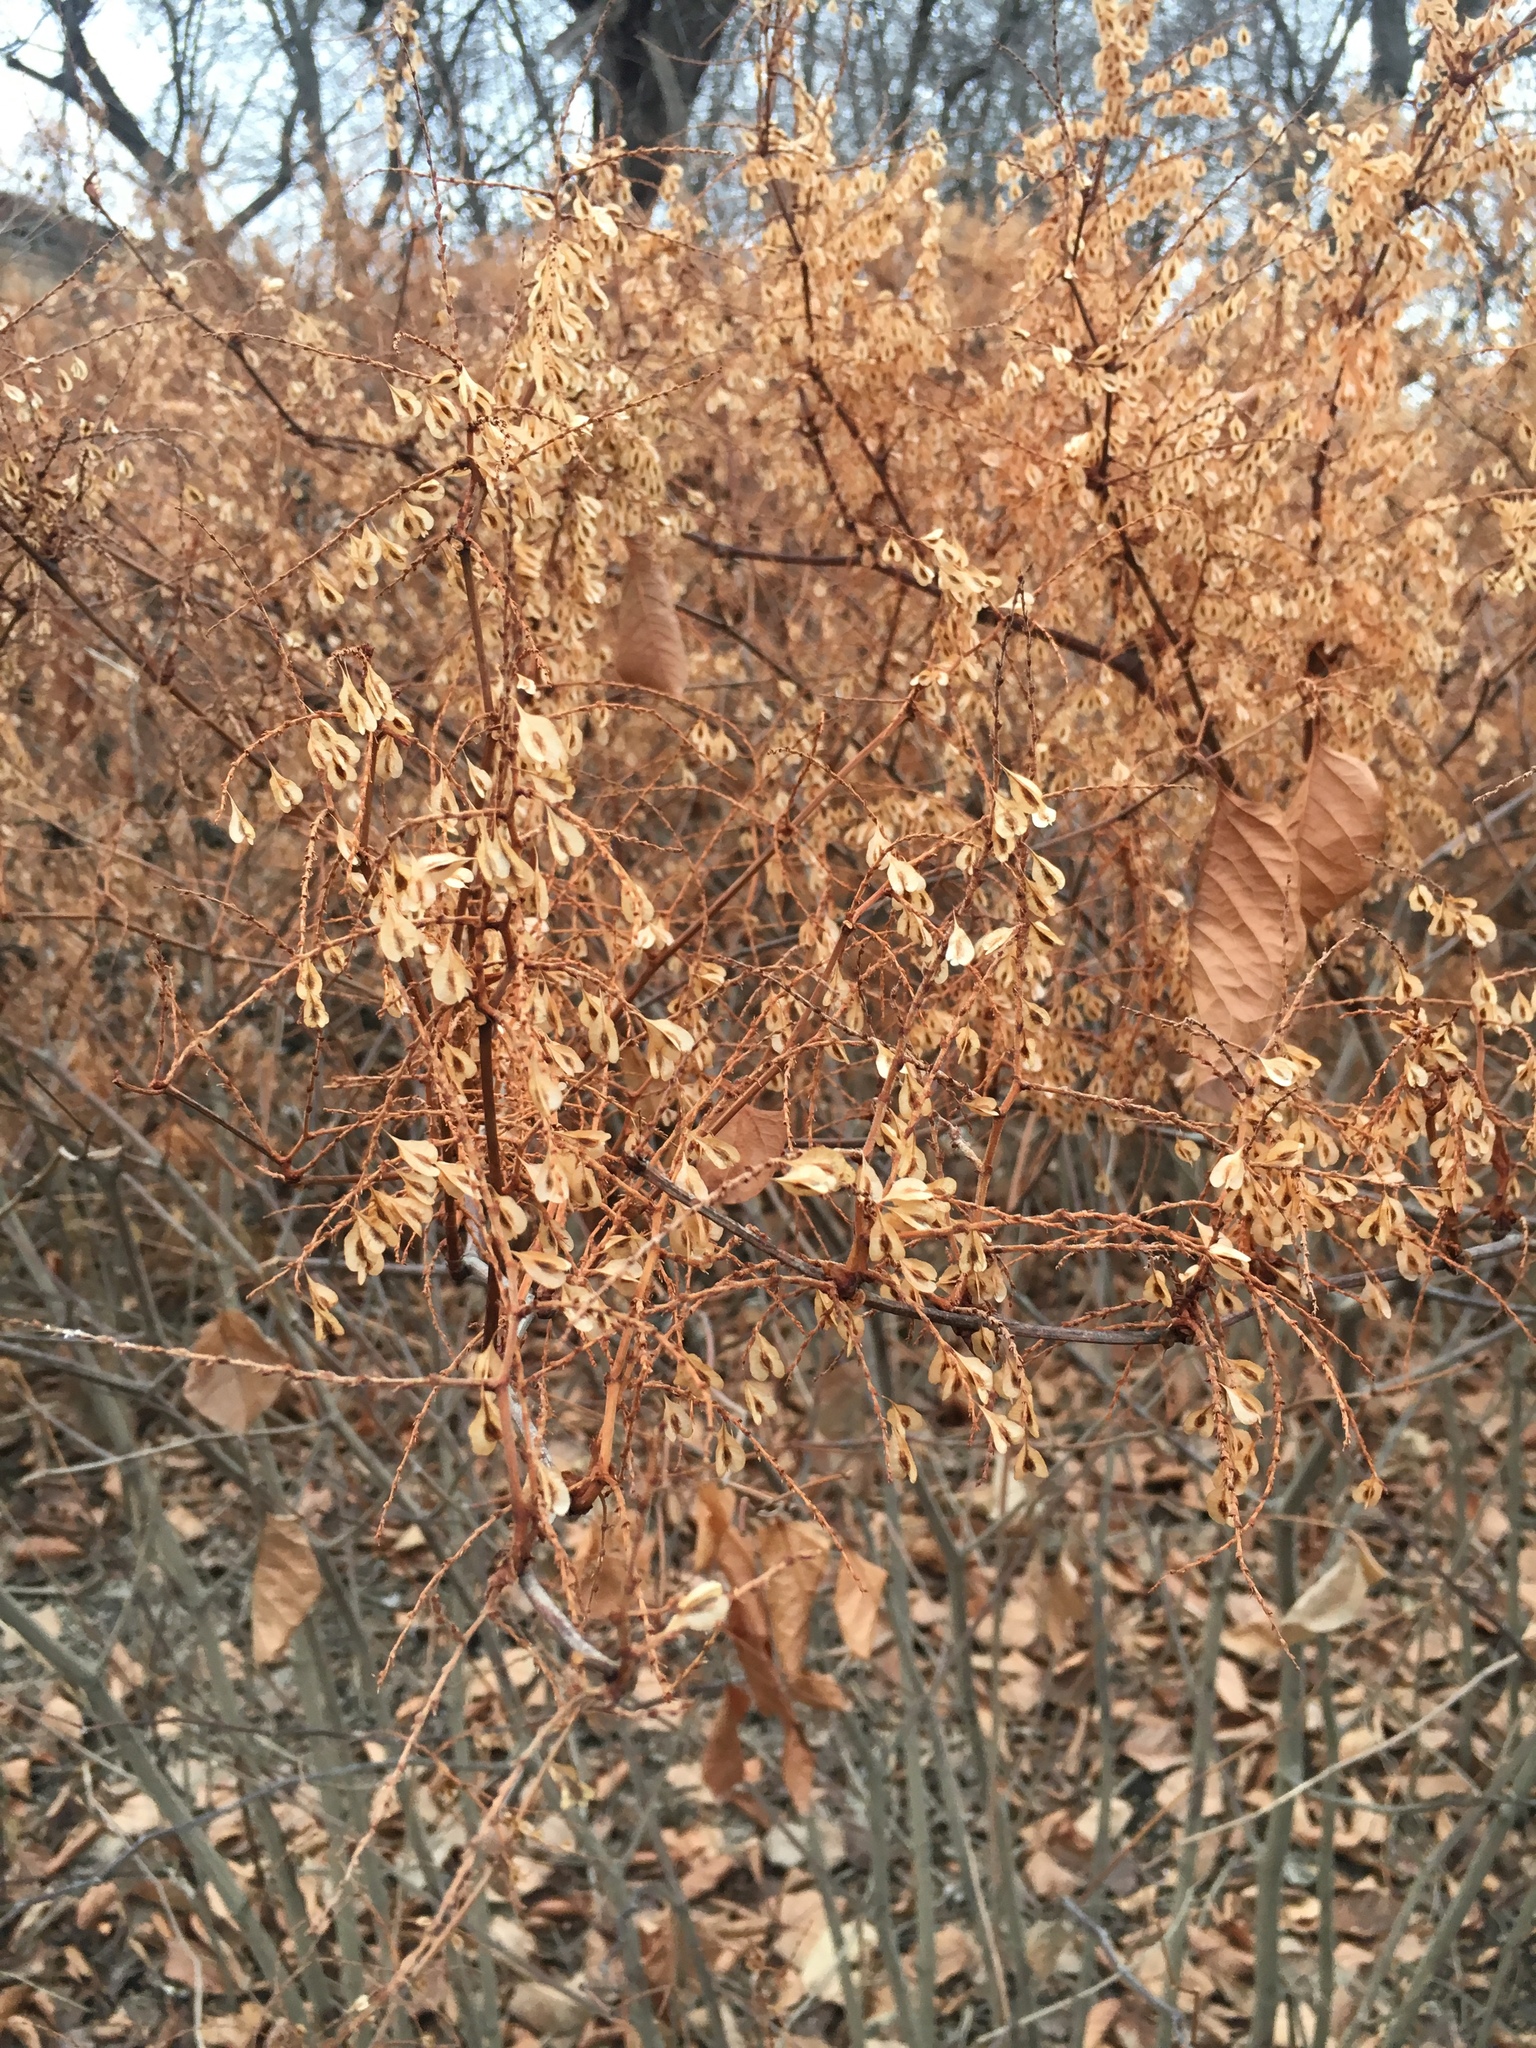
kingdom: Plantae
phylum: Tracheophyta
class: Magnoliopsida
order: Caryophyllales
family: Polygonaceae
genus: Fallopia
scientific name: Fallopia scandens
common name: Climbing false buckwheat
